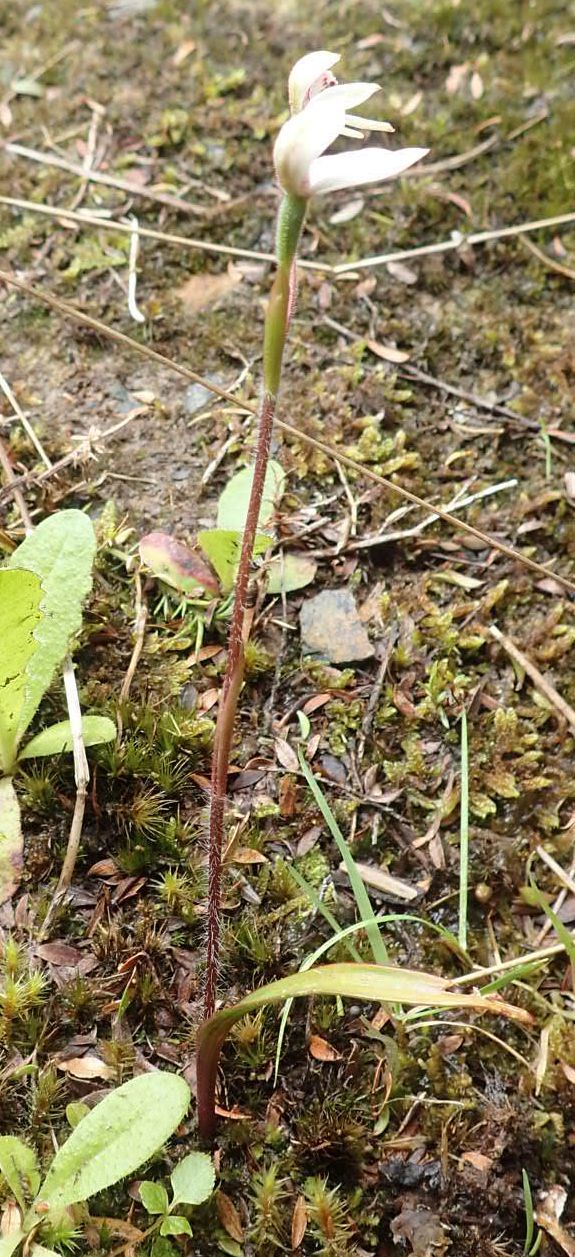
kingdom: Plantae
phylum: Tracheophyta
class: Liliopsida
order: Asparagales
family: Orchidaceae
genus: Caladenia
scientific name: Caladenia lyallii
